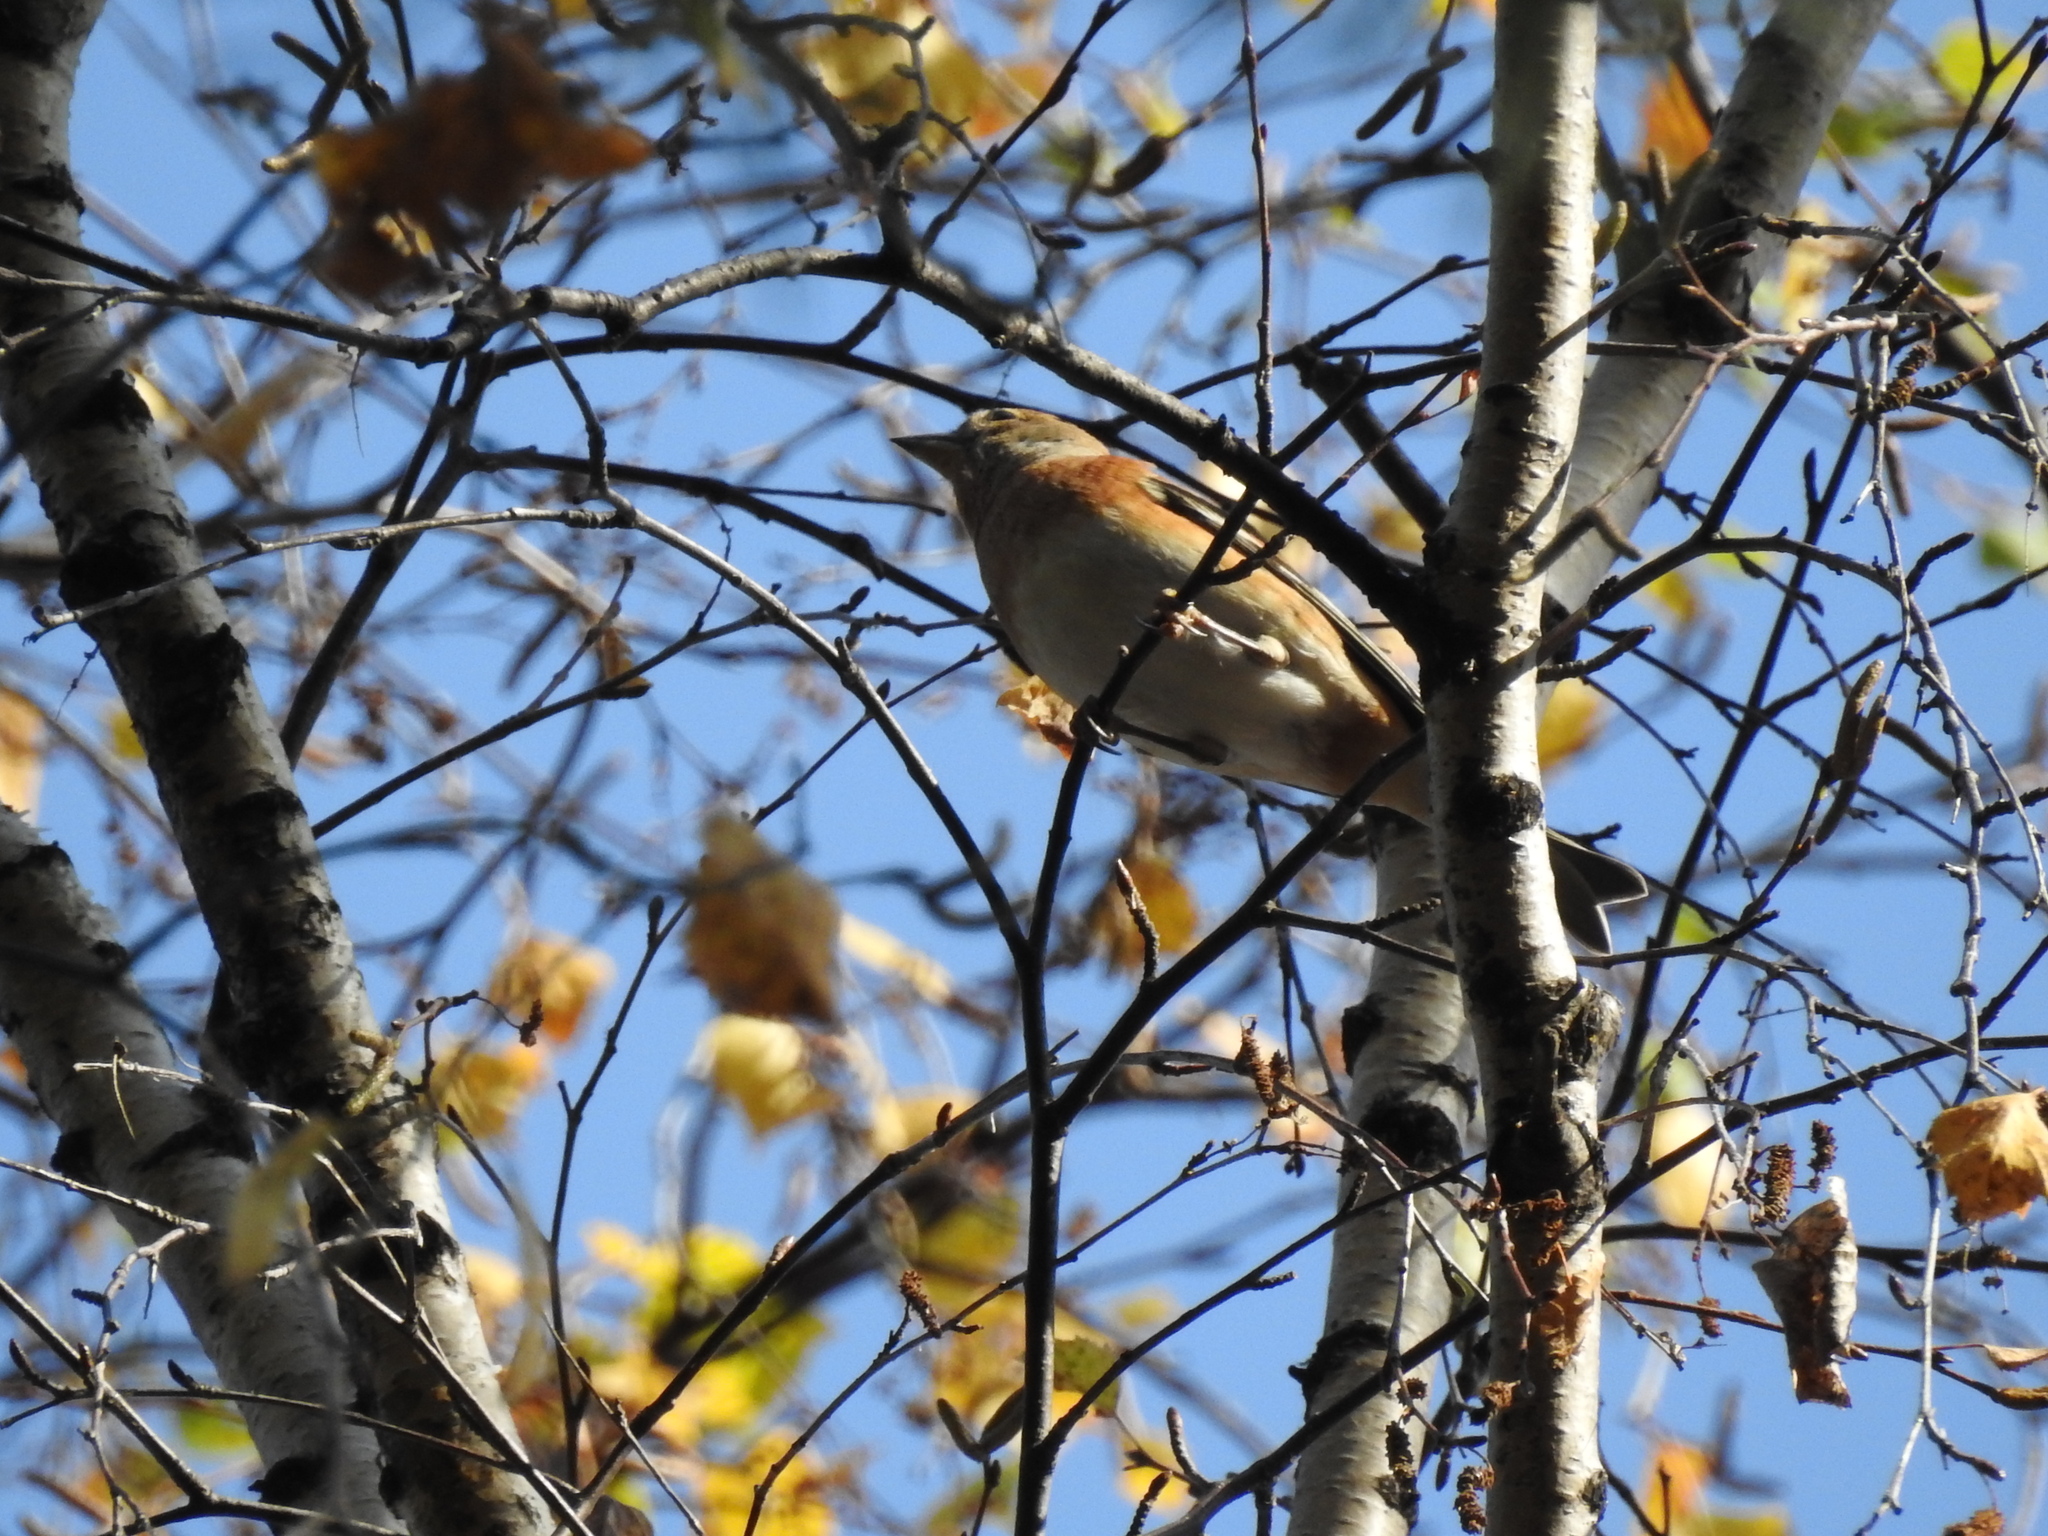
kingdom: Animalia
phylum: Chordata
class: Aves
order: Passeriformes
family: Fringillidae
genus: Fringilla
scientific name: Fringilla montifringilla
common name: Brambling
